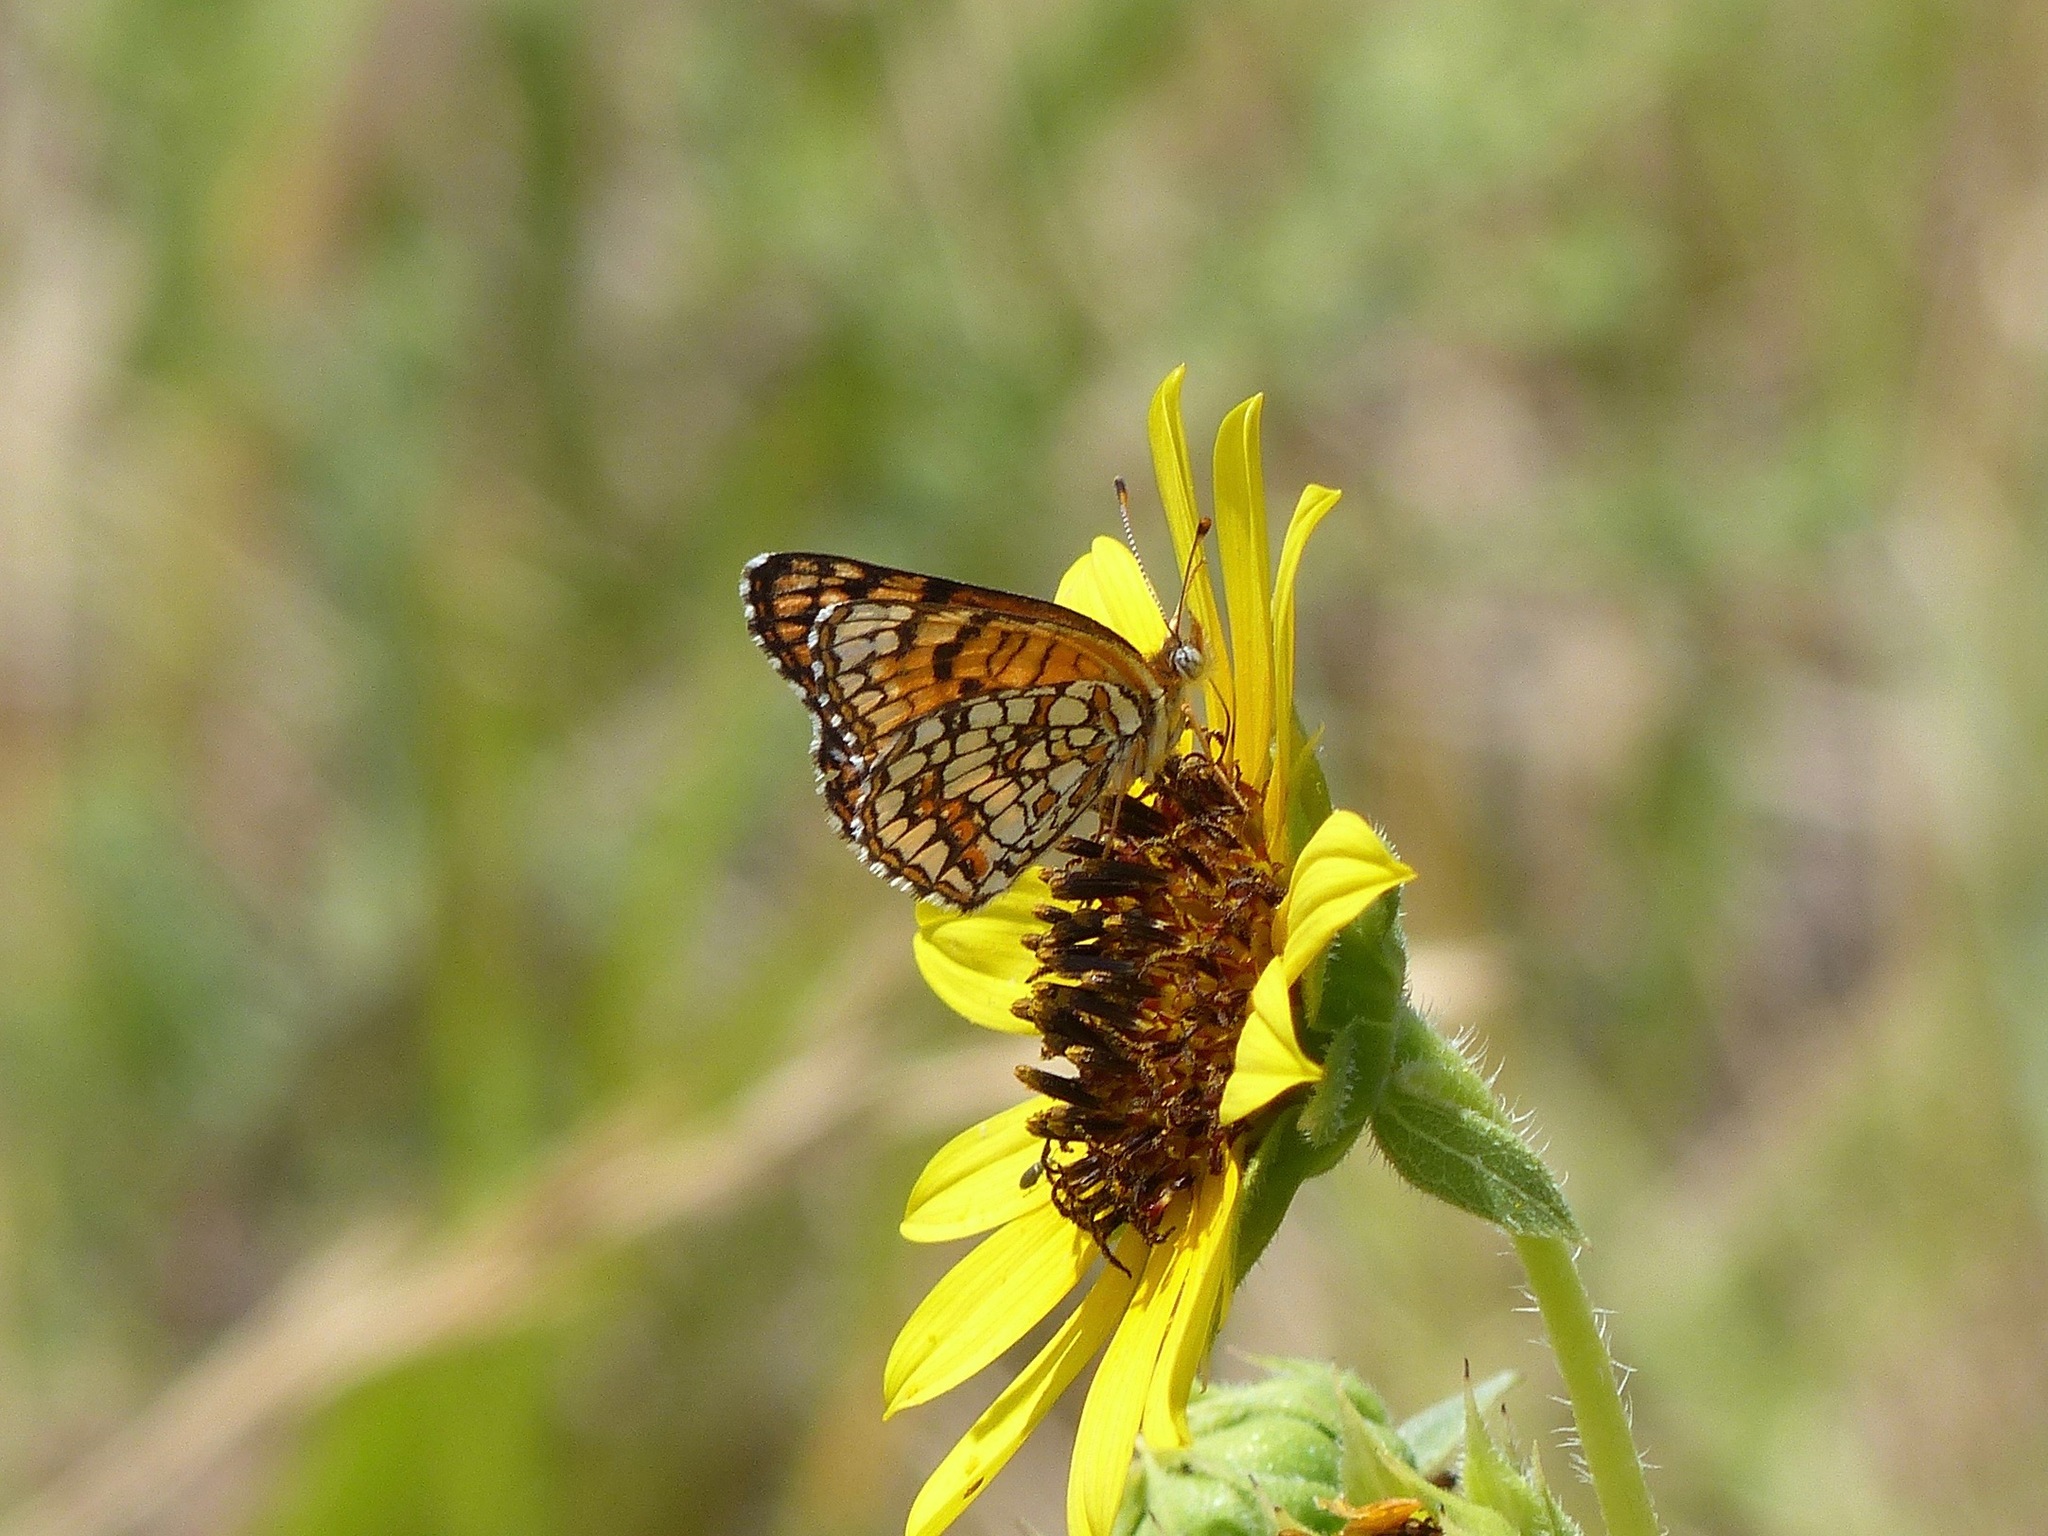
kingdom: Animalia
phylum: Arthropoda
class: Insecta
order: Lepidoptera
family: Nymphalidae
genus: Chlosyne
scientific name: Chlosyne acastus
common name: Sagebrush checkerspot
